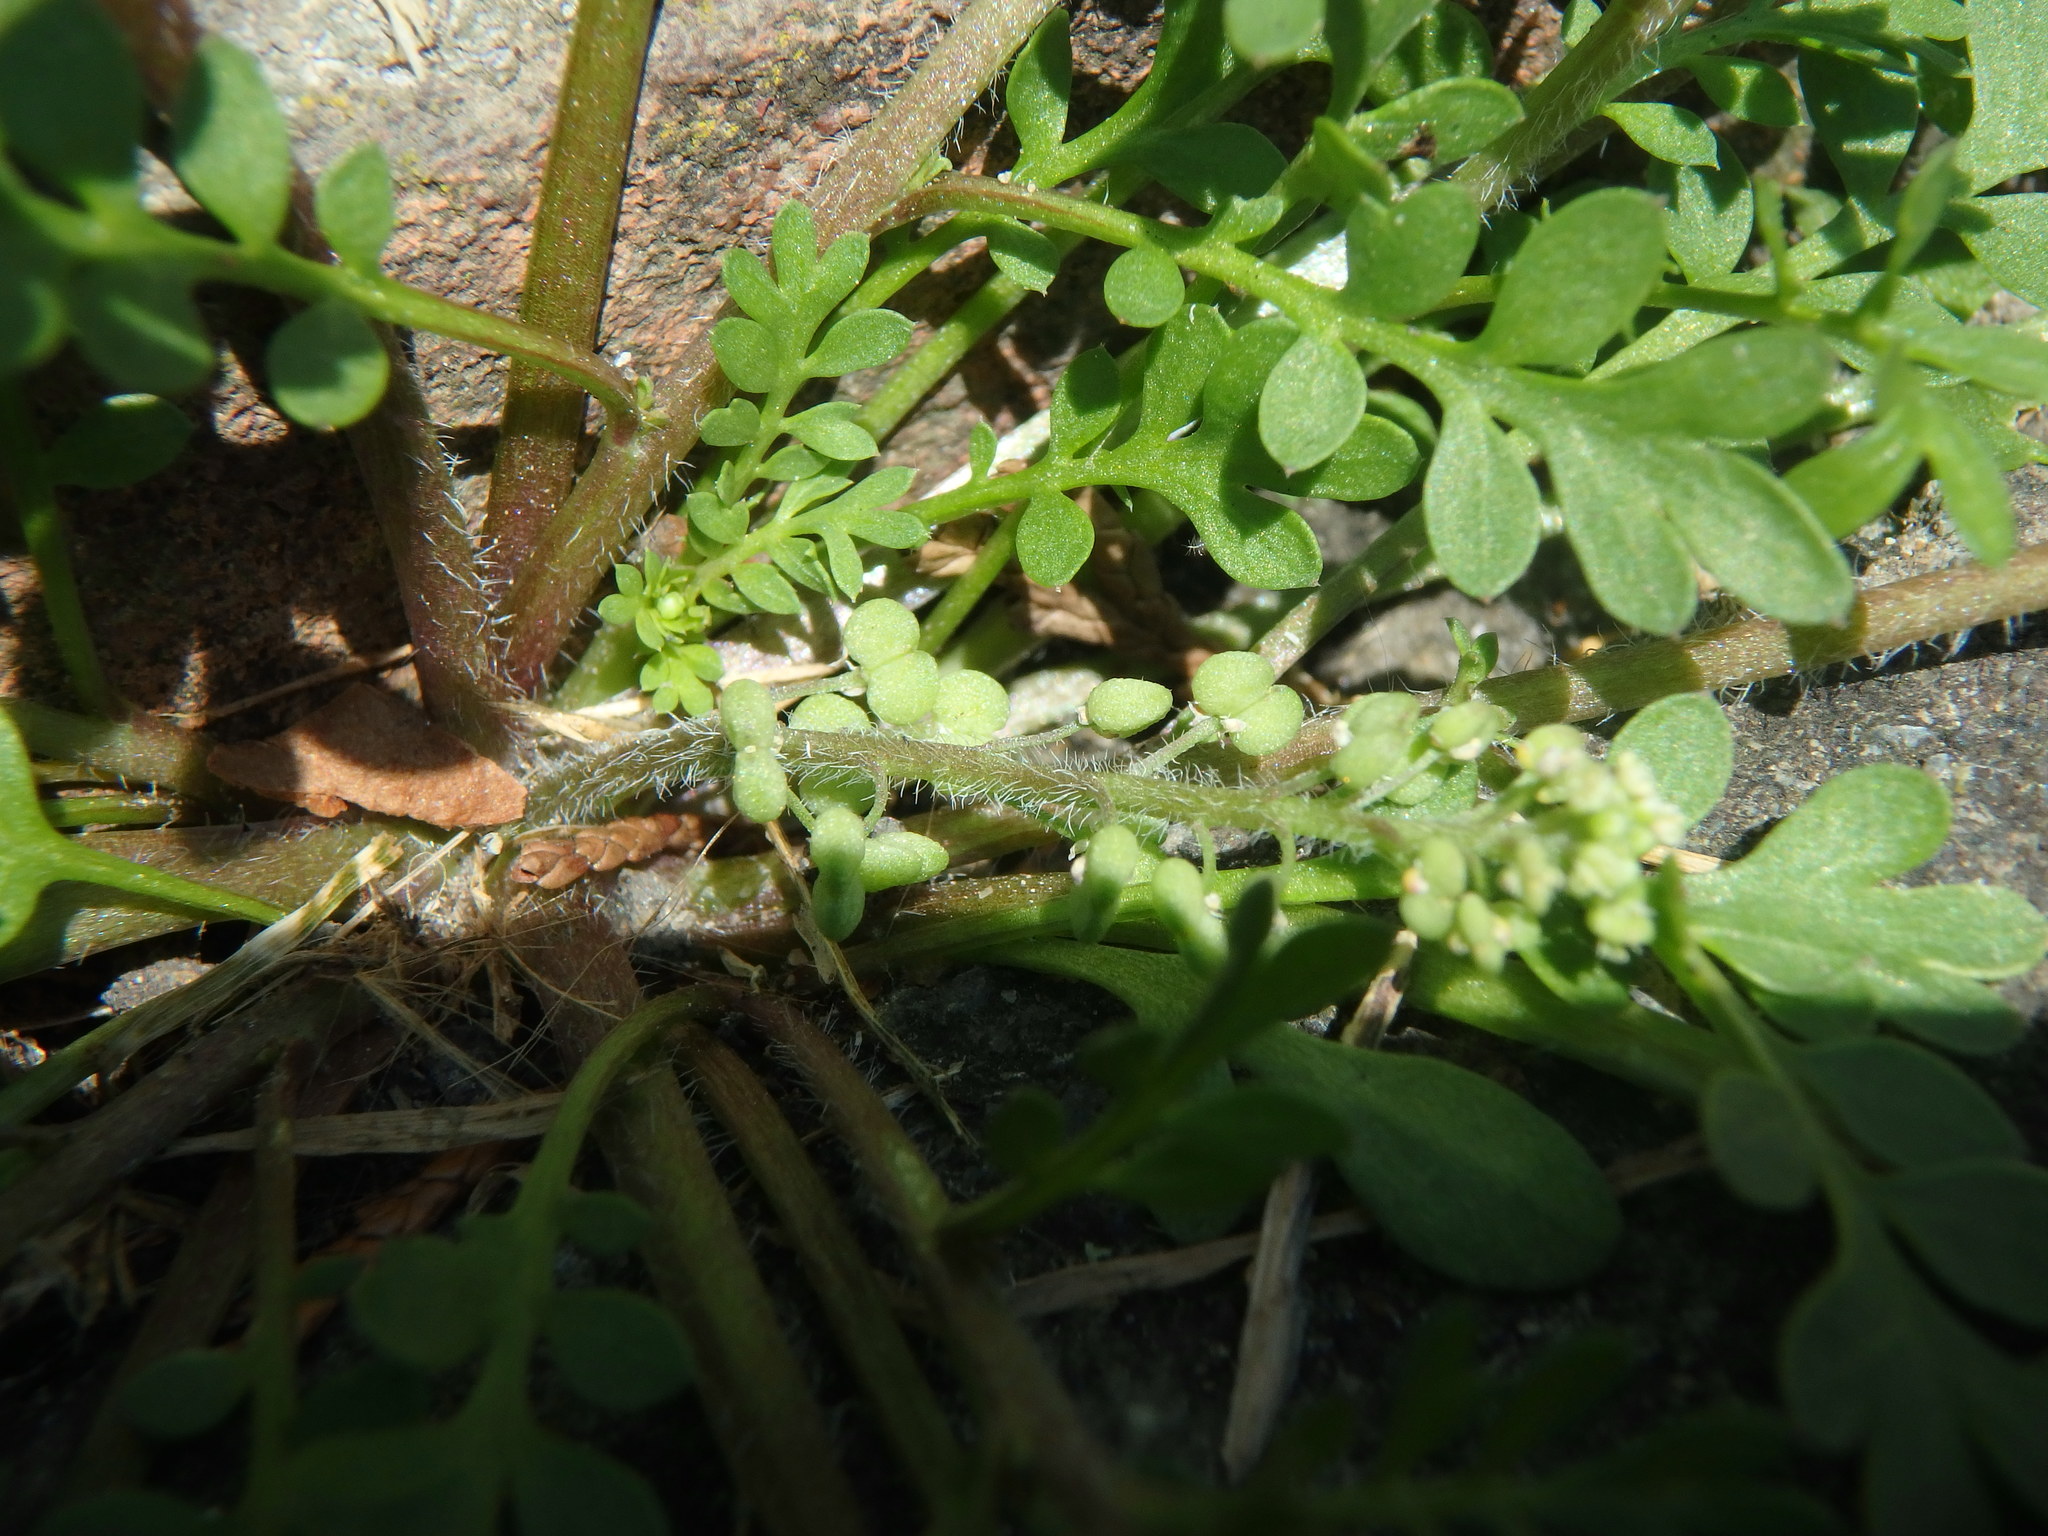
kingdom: Plantae
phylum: Tracheophyta
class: Magnoliopsida
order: Brassicales
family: Brassicaceae
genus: Lepidium
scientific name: Lepidium didymum
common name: Lesser swinecress
